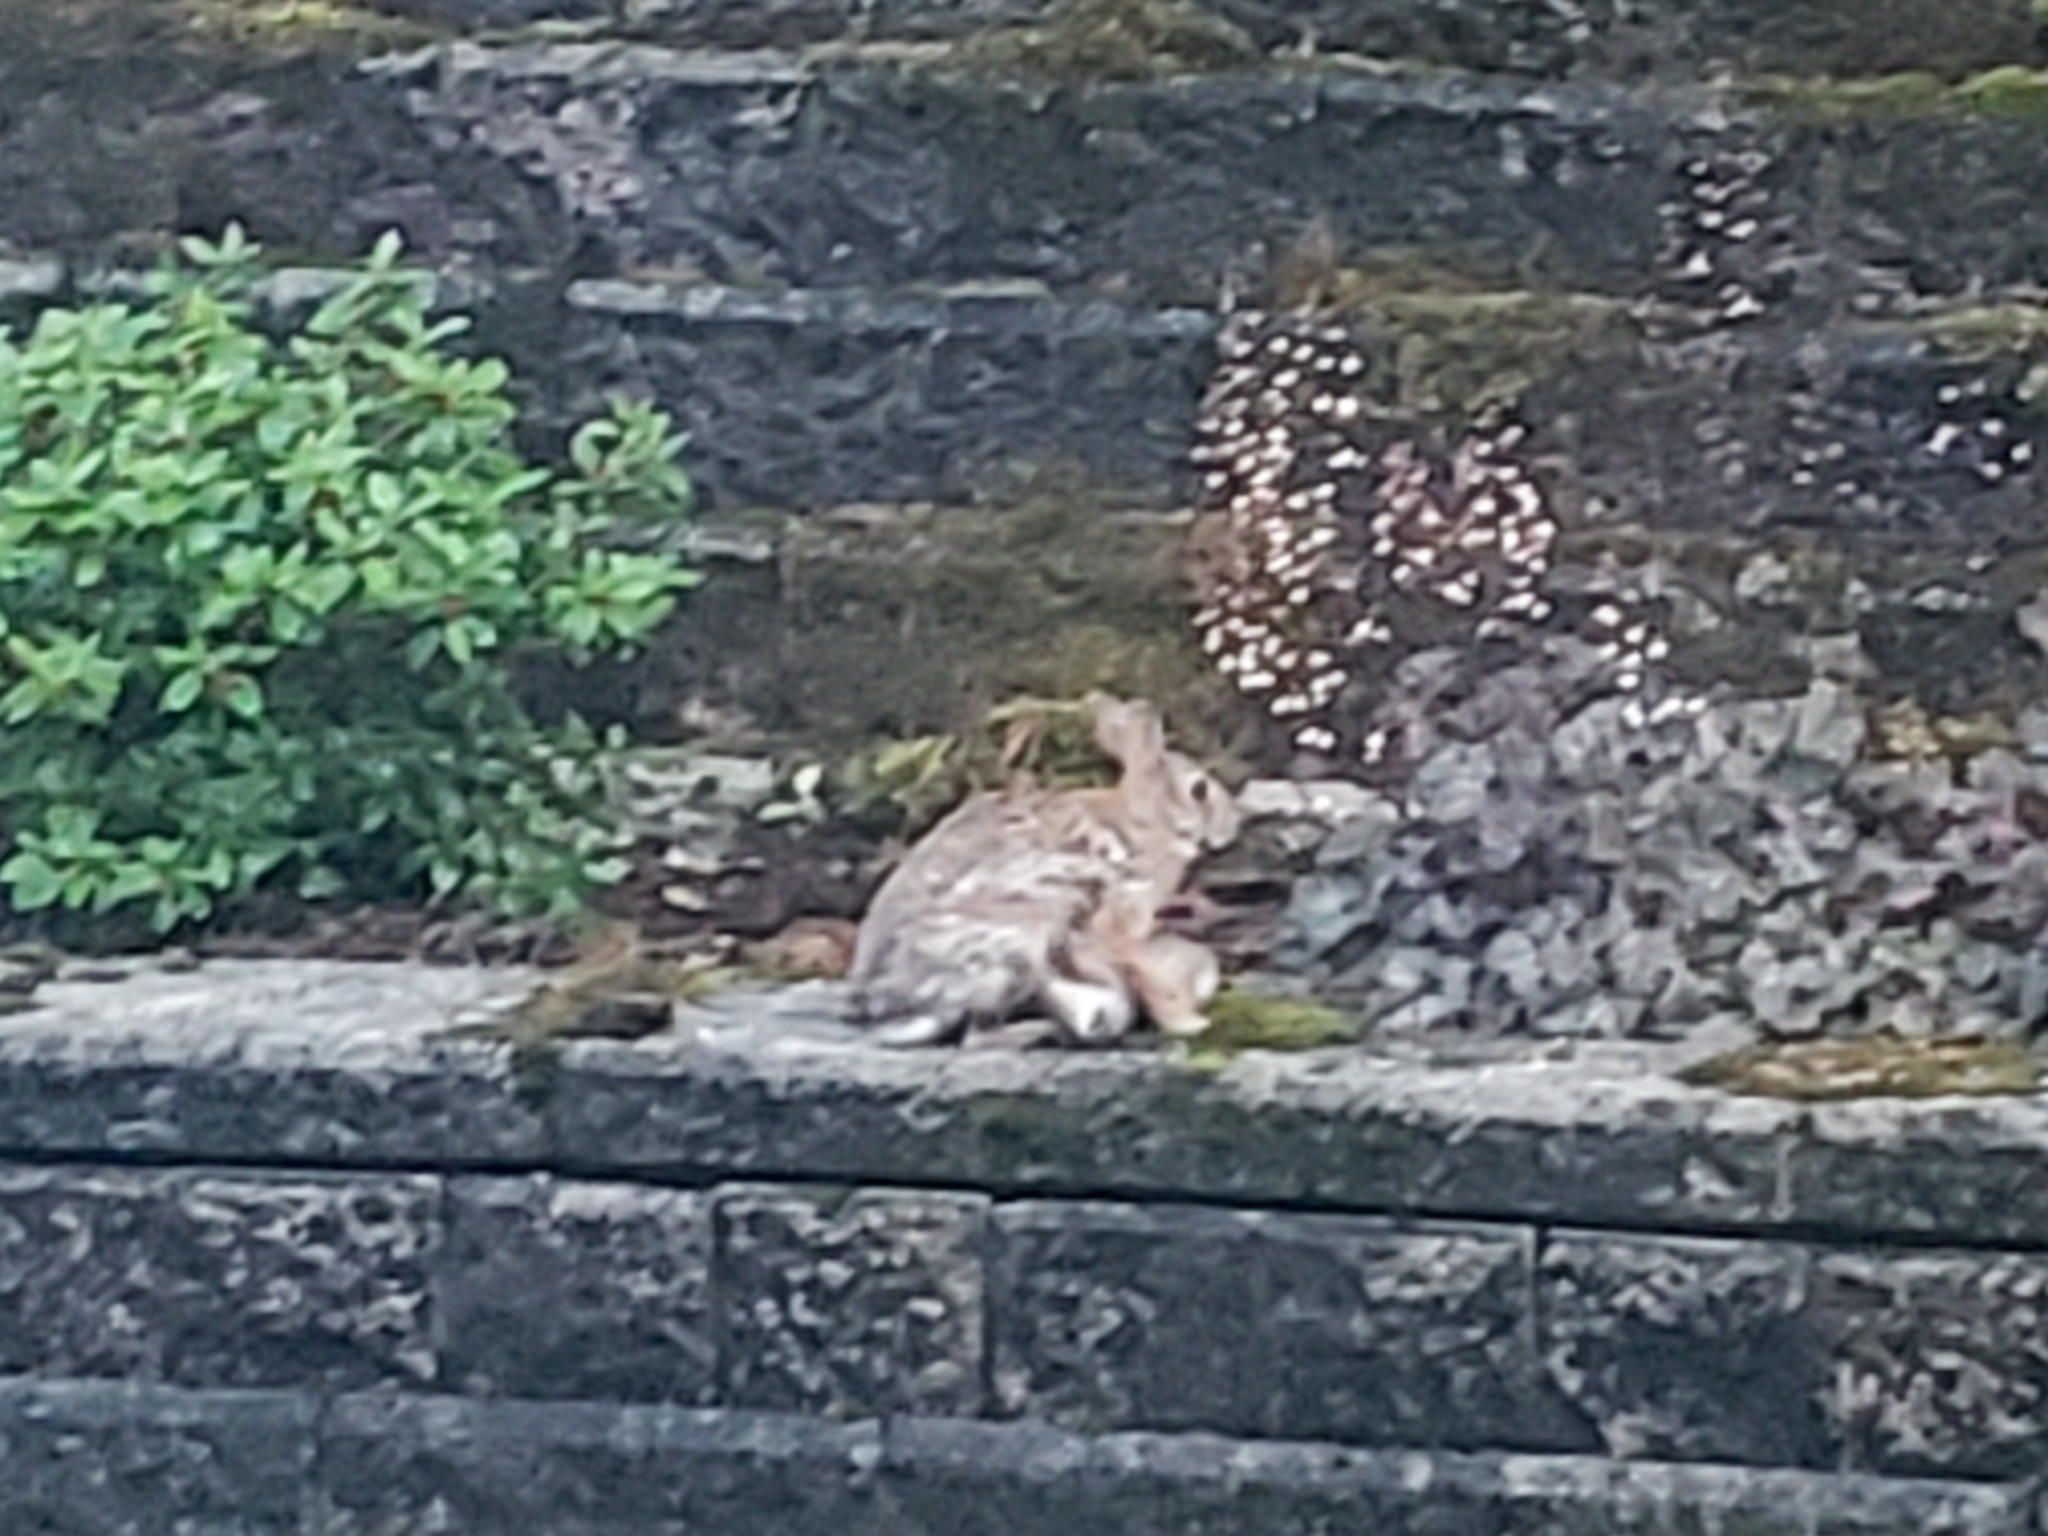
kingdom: Animalia
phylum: Chordata
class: Mammalia
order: Lagomorpha
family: Leporidae
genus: Sylvilagus
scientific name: Sylvilagus floridanus
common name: Eastern cottontail
